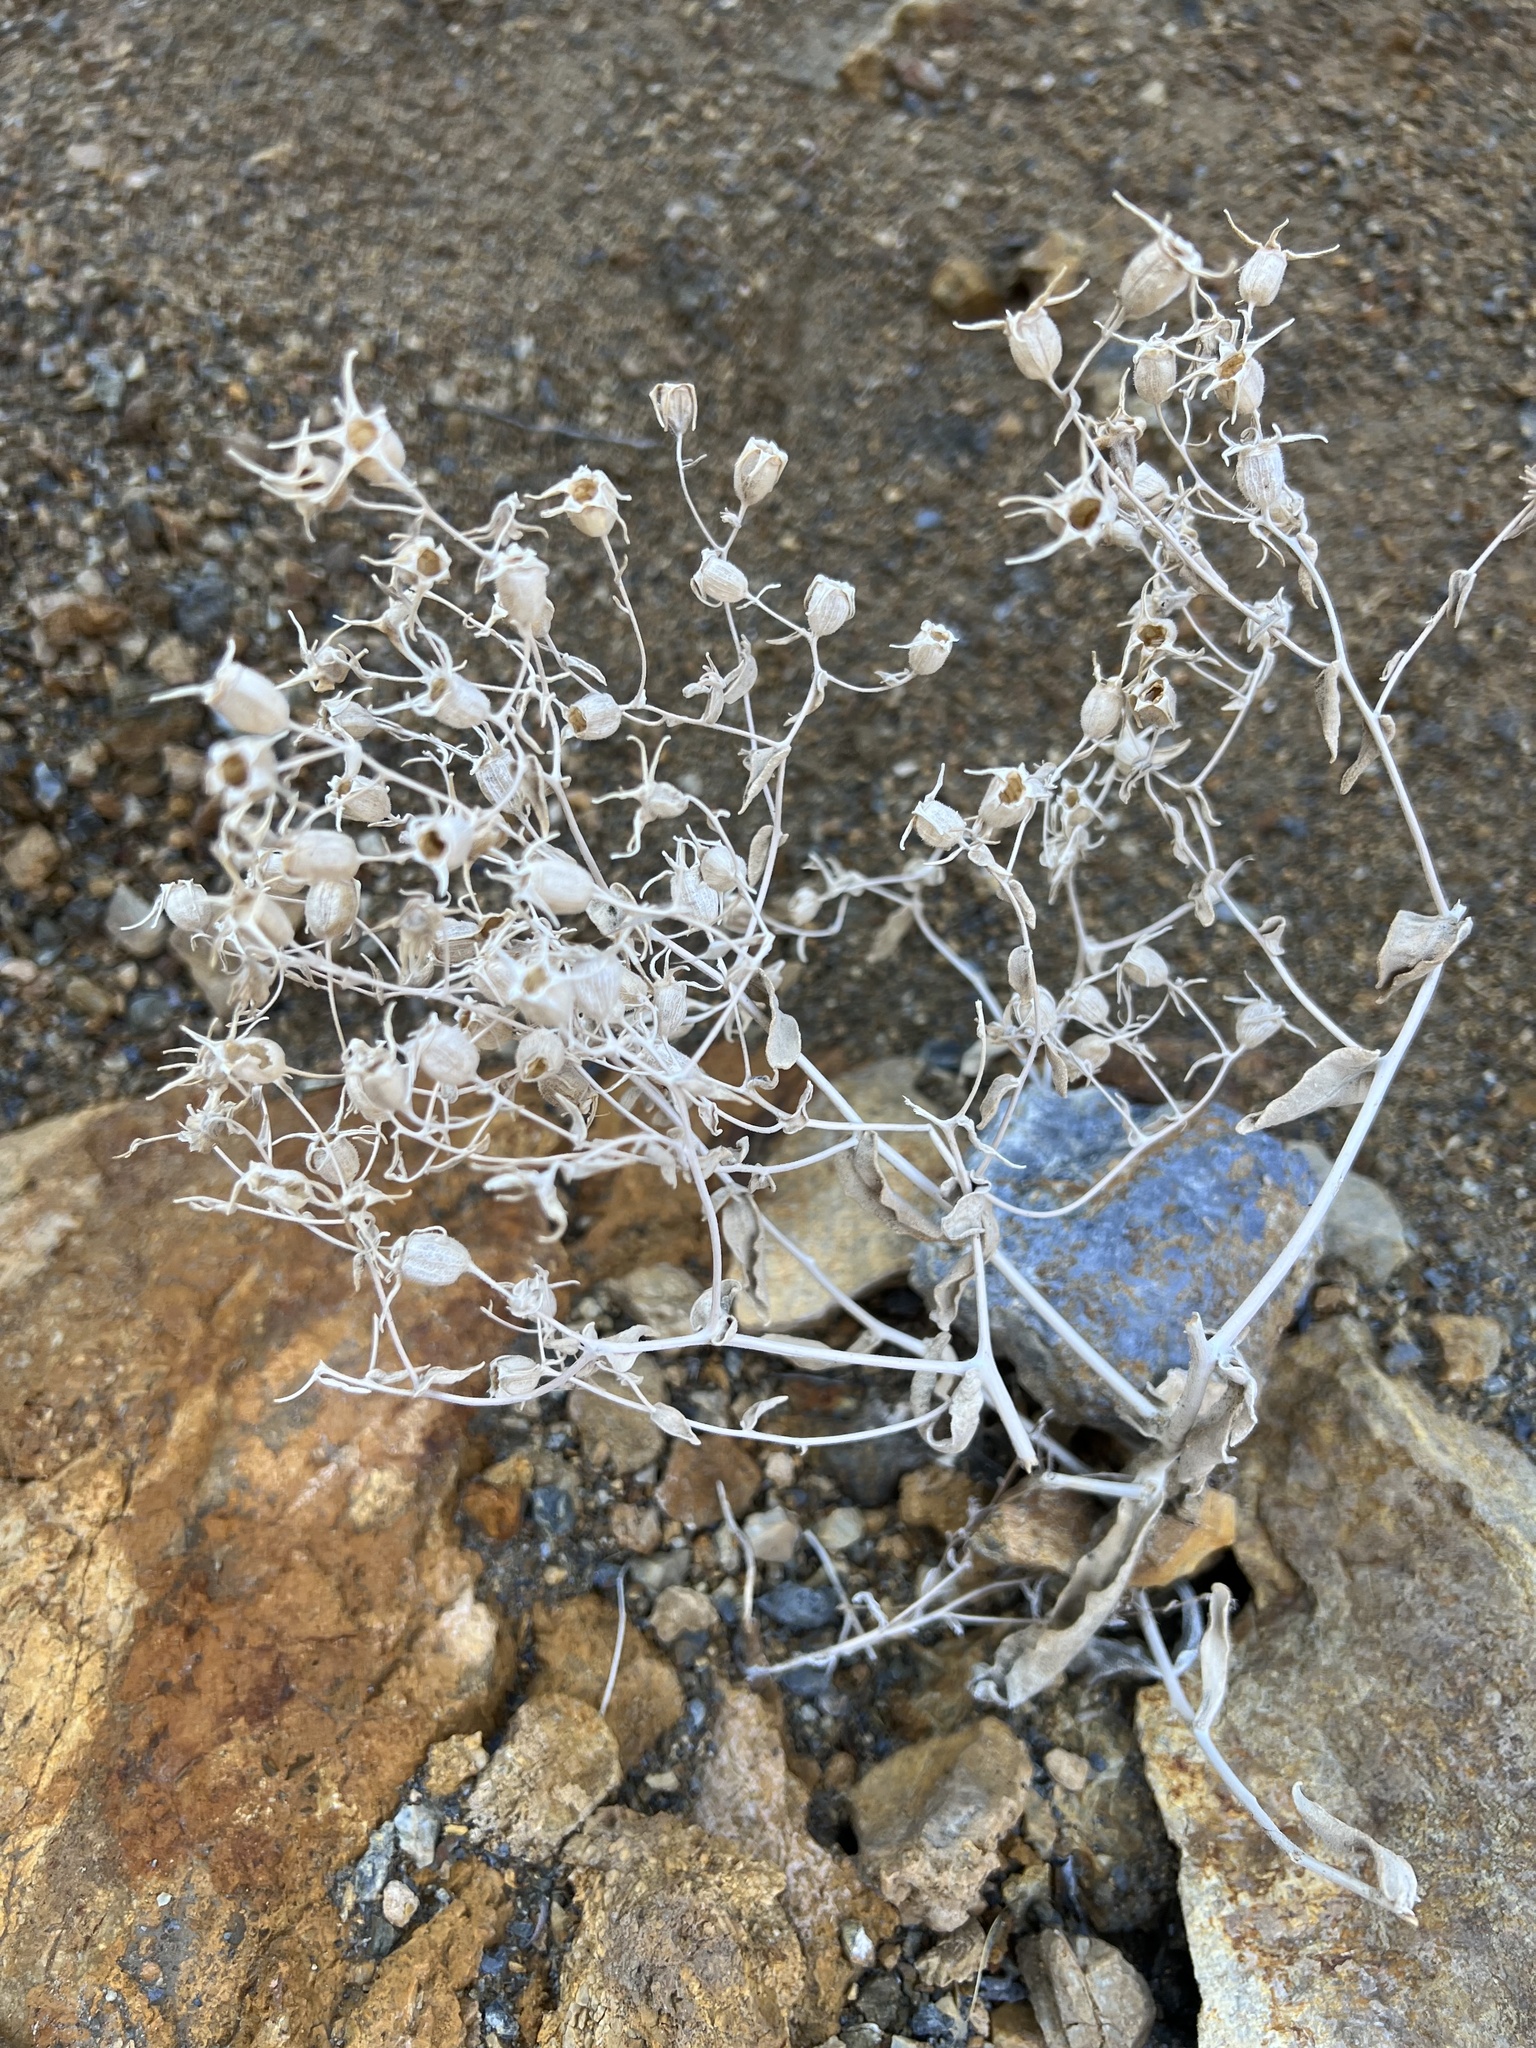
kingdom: Plantae
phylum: Tracheophyta
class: Magnoliopsida
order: Cornales
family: Loasaceae
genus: Mentzelia
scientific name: Mentzelia oreophila
